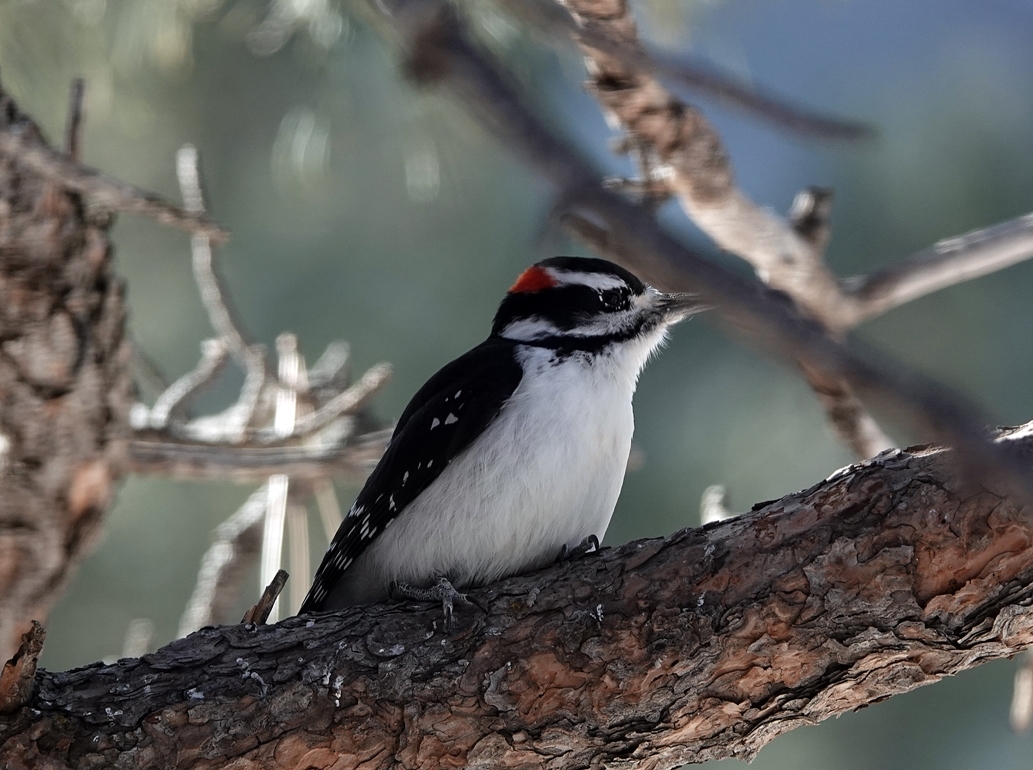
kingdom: Animalia
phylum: Chordata
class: Aves
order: Piciformes
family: Picidae
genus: Leuconotopicus
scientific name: Leuconotopicus villosus
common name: Hairy woodpecker
